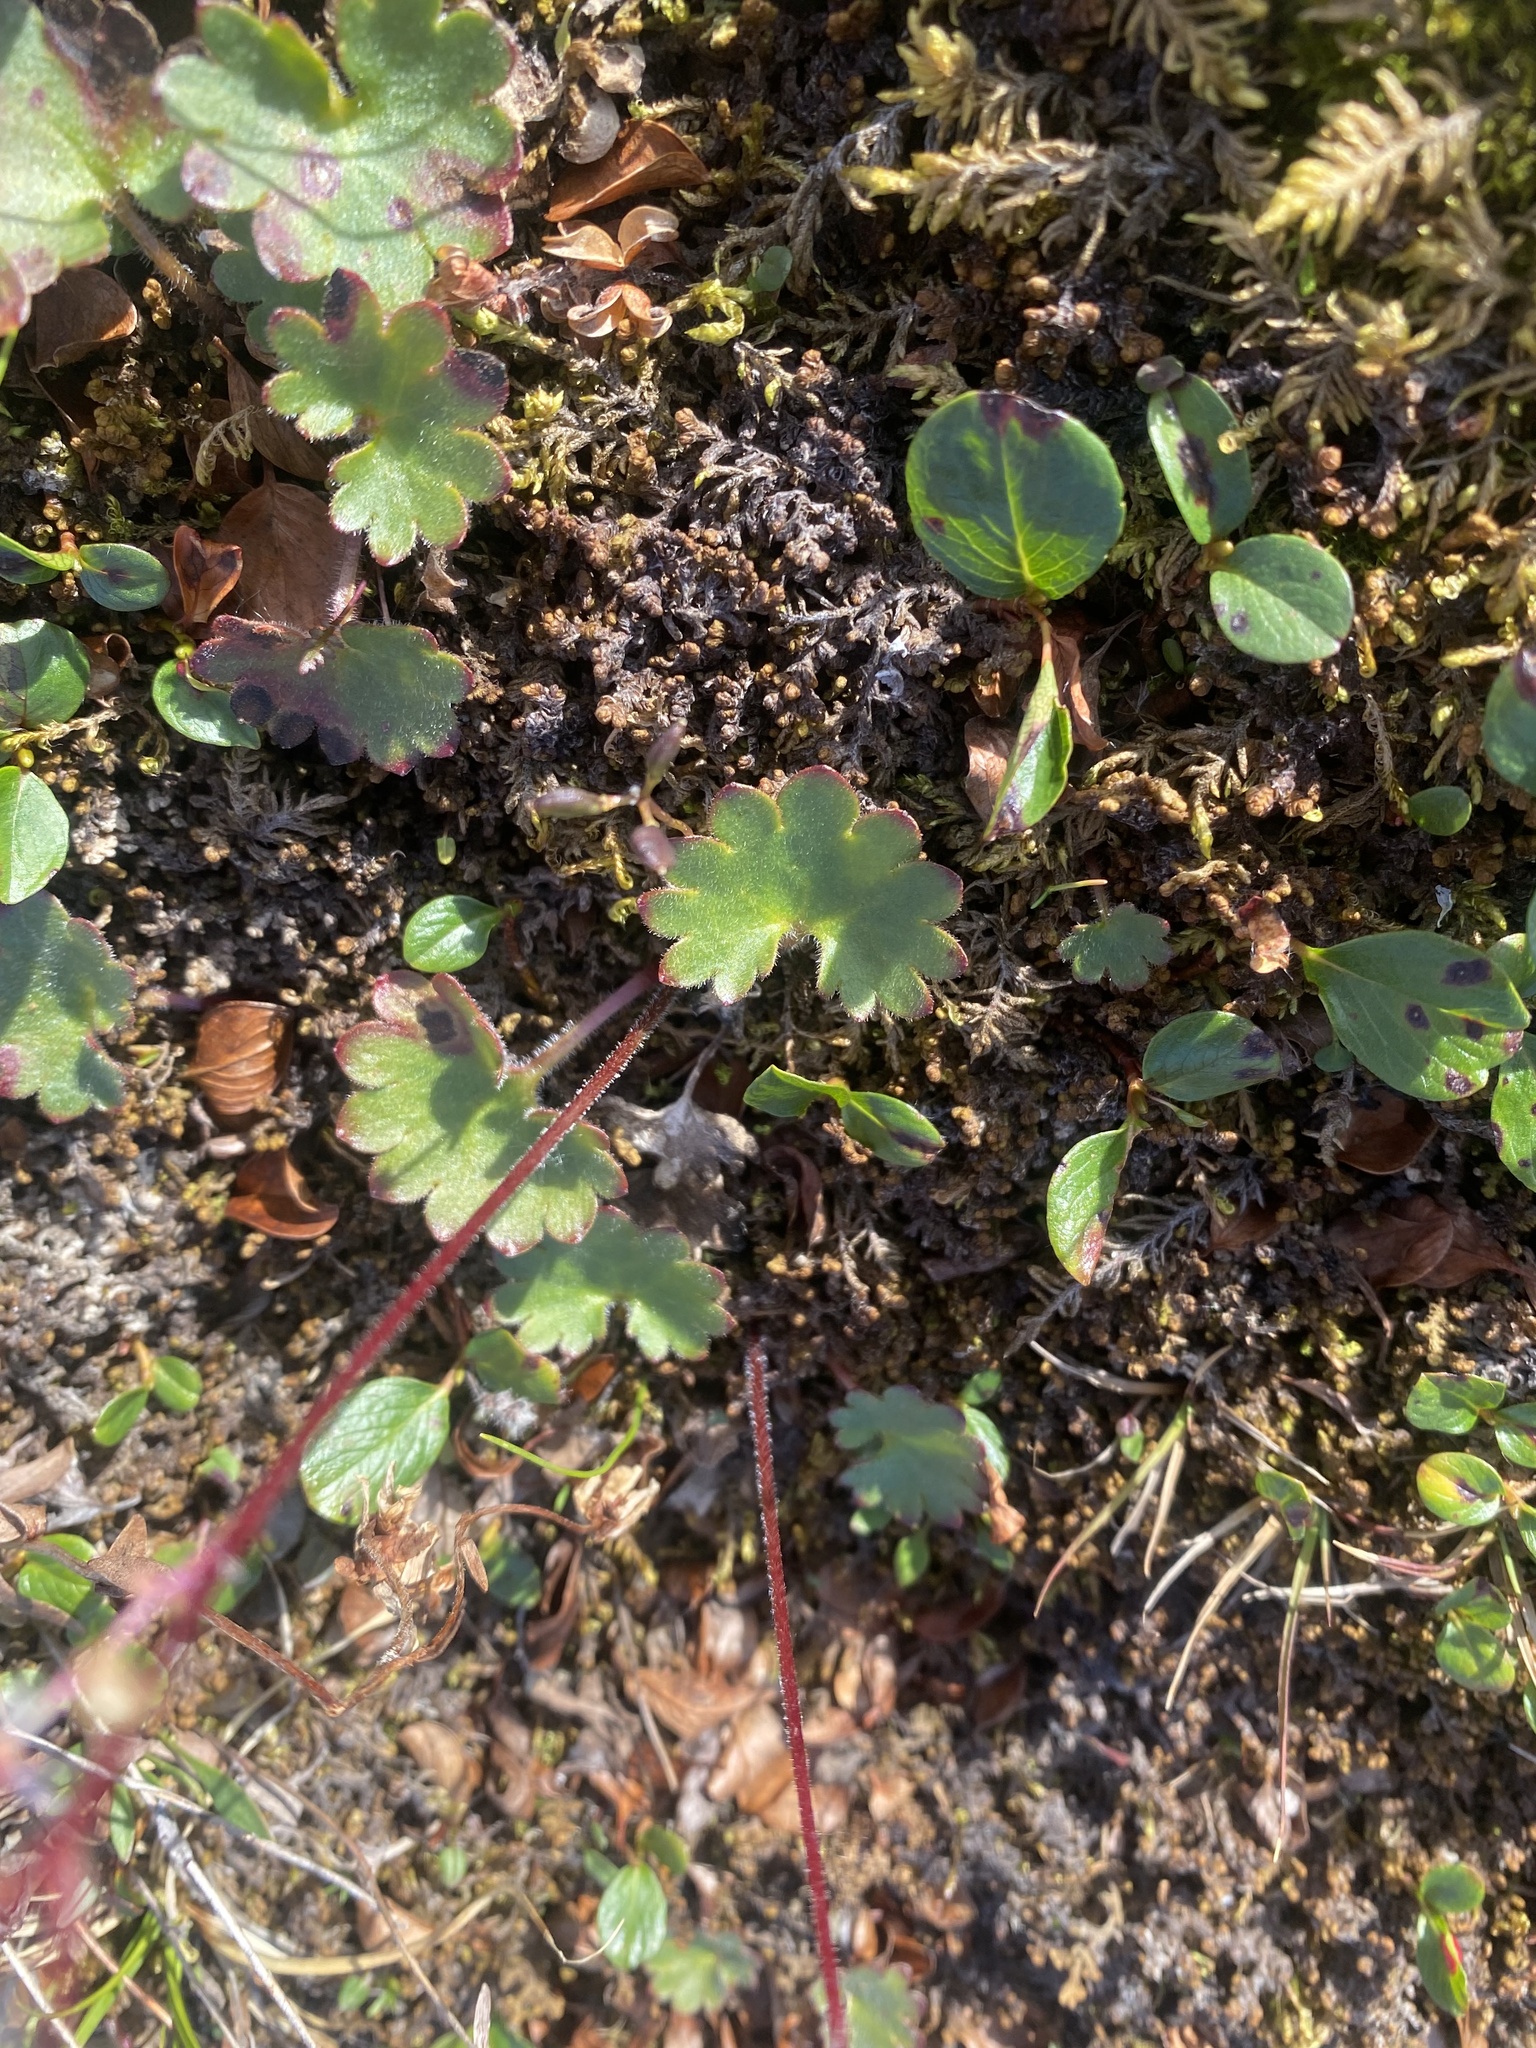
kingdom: Plantae
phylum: Tracheophyta
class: Magnoliopsida
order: Saxifragales
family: Saxifragaceae
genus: Micranthes
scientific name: Micranthes nelsoniana
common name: Nelson's saxifrage
